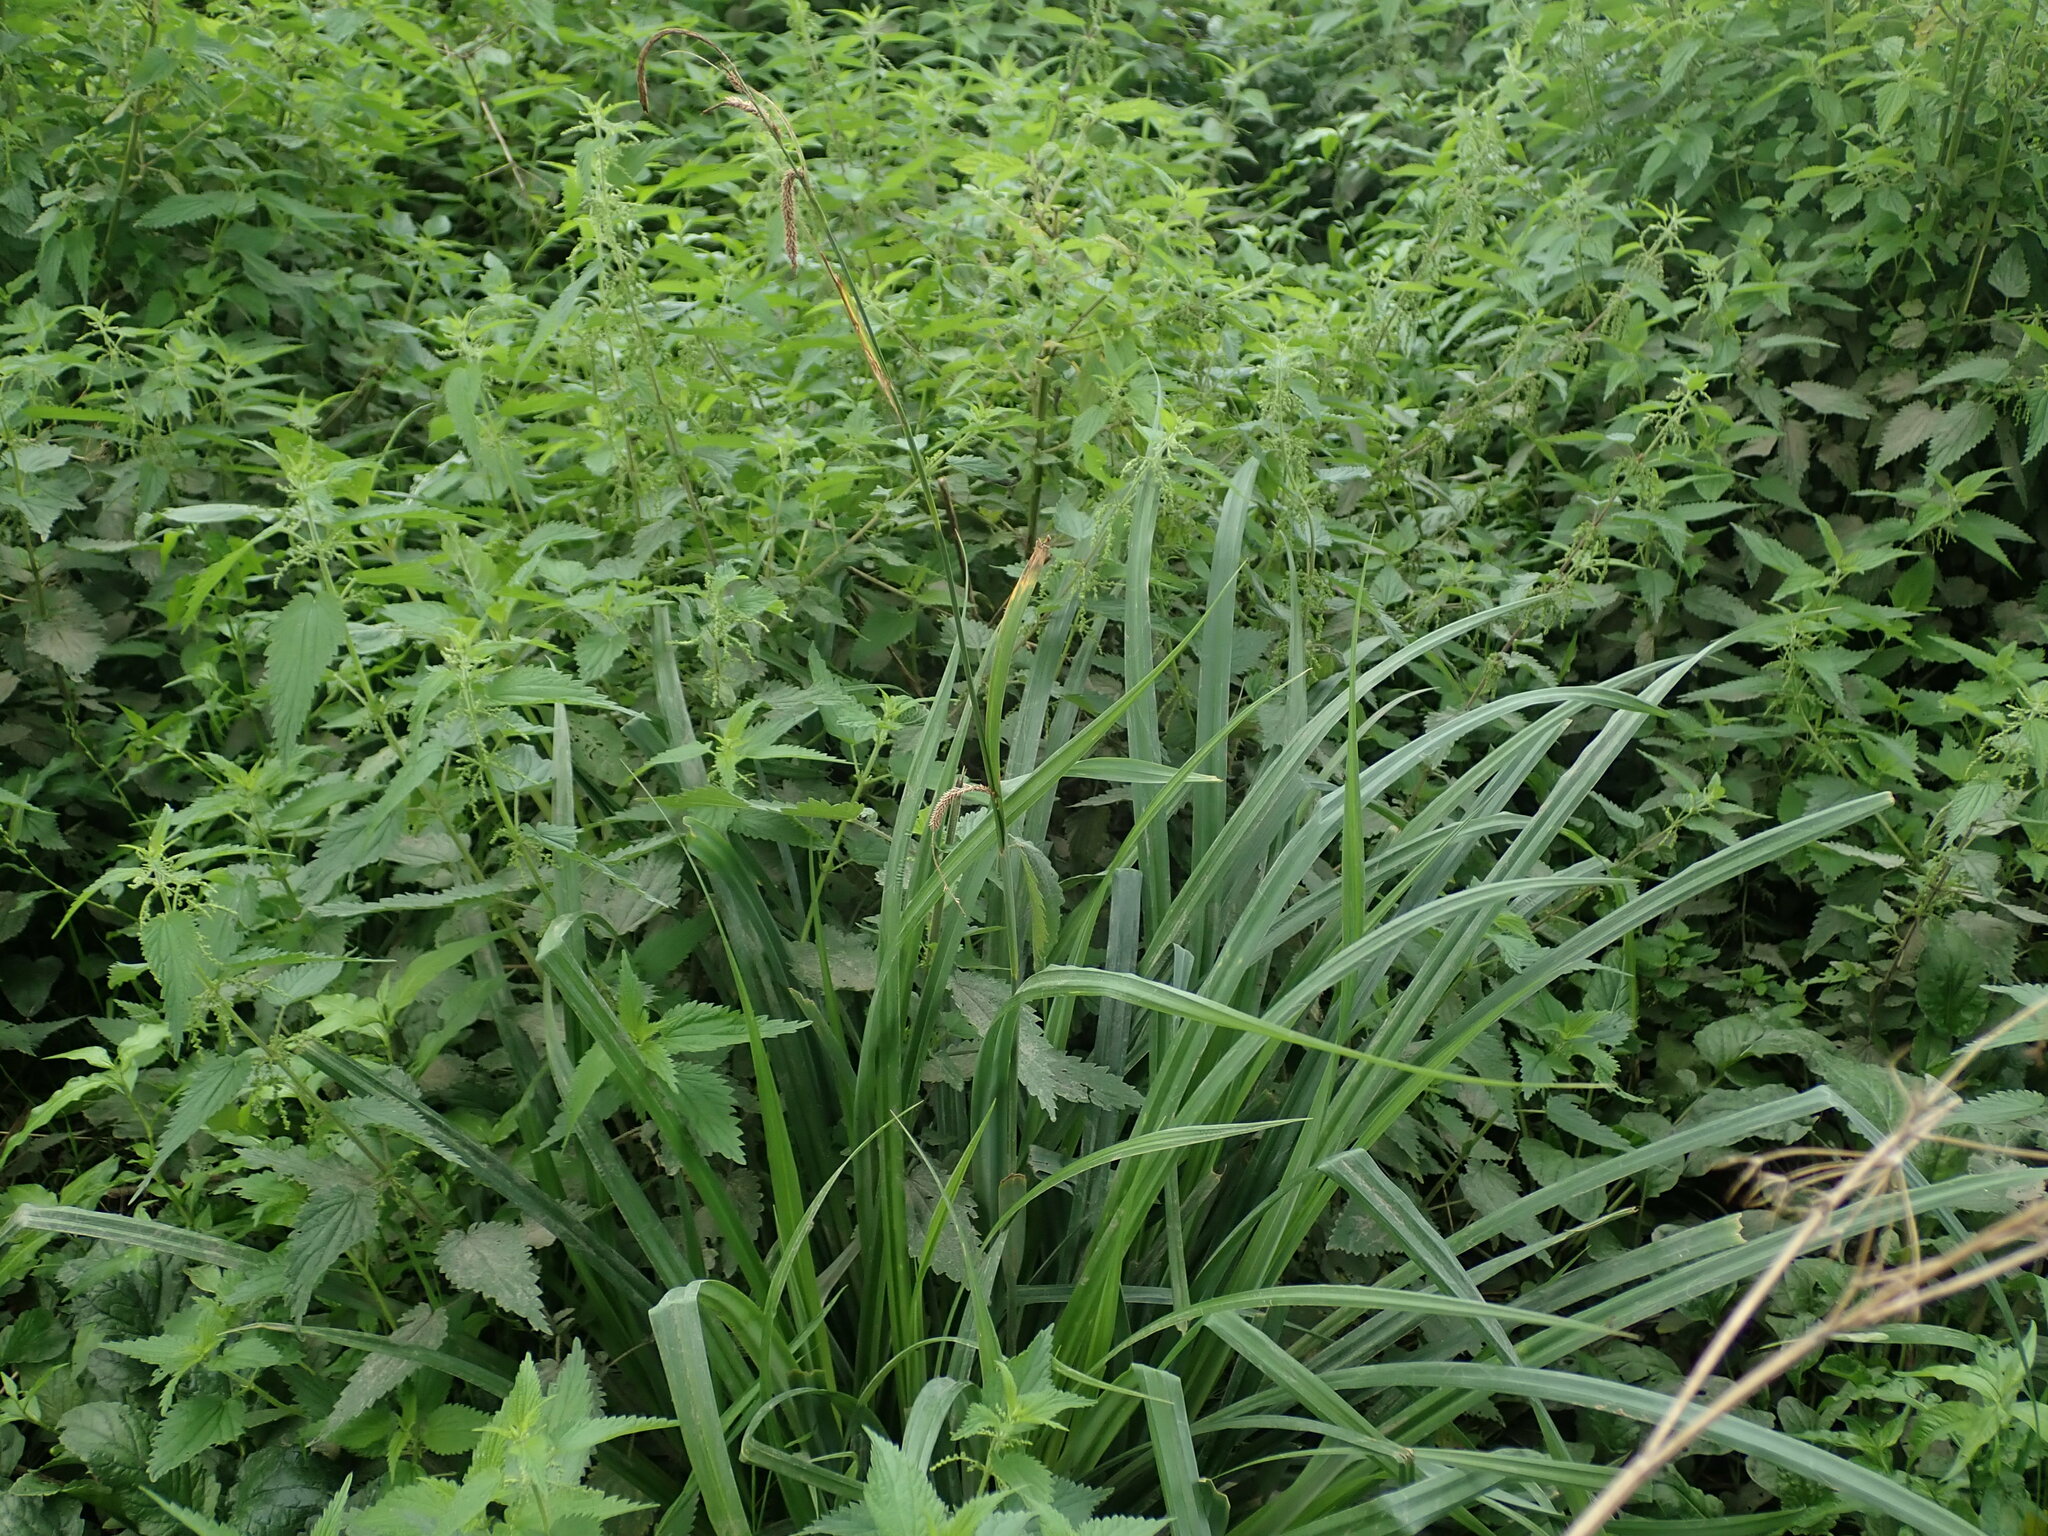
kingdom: Plantae
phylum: Tracheophyta
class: Liliopsida
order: Poales
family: Cyperaceae
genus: Carex
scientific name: Carex pendula
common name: Pendulous sedge
